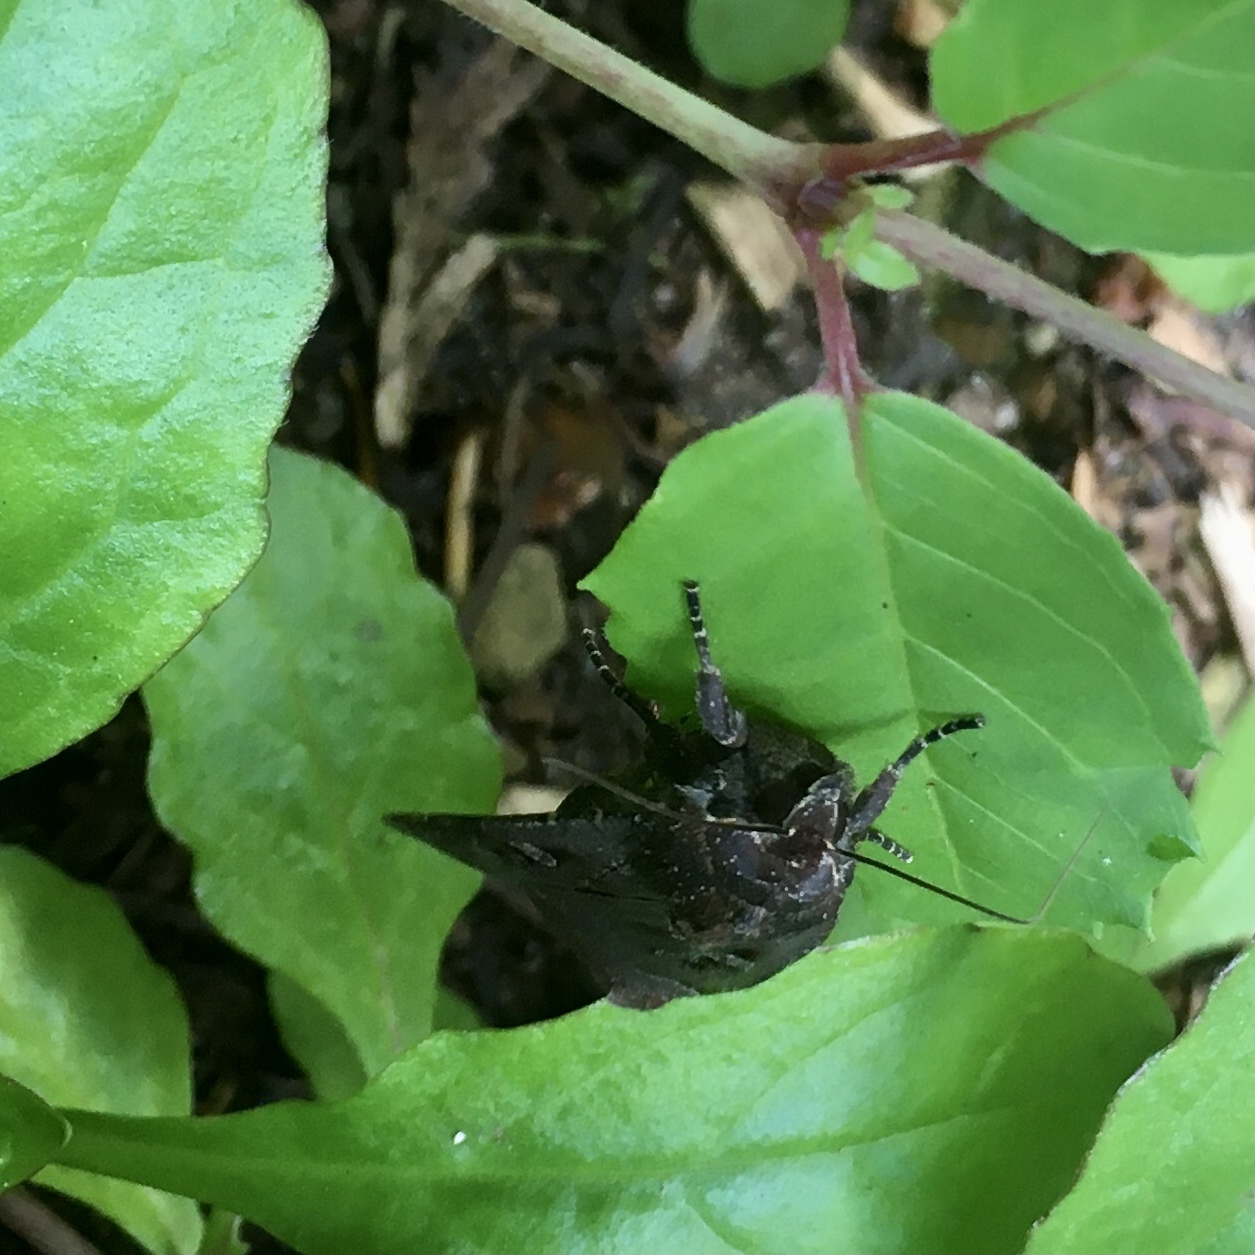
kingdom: Animalia
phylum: Arthropoda
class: Insecta
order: Lepidoptera
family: Noctuidae
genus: Noctua
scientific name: Noctua pronuba
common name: Large yellow underwing
